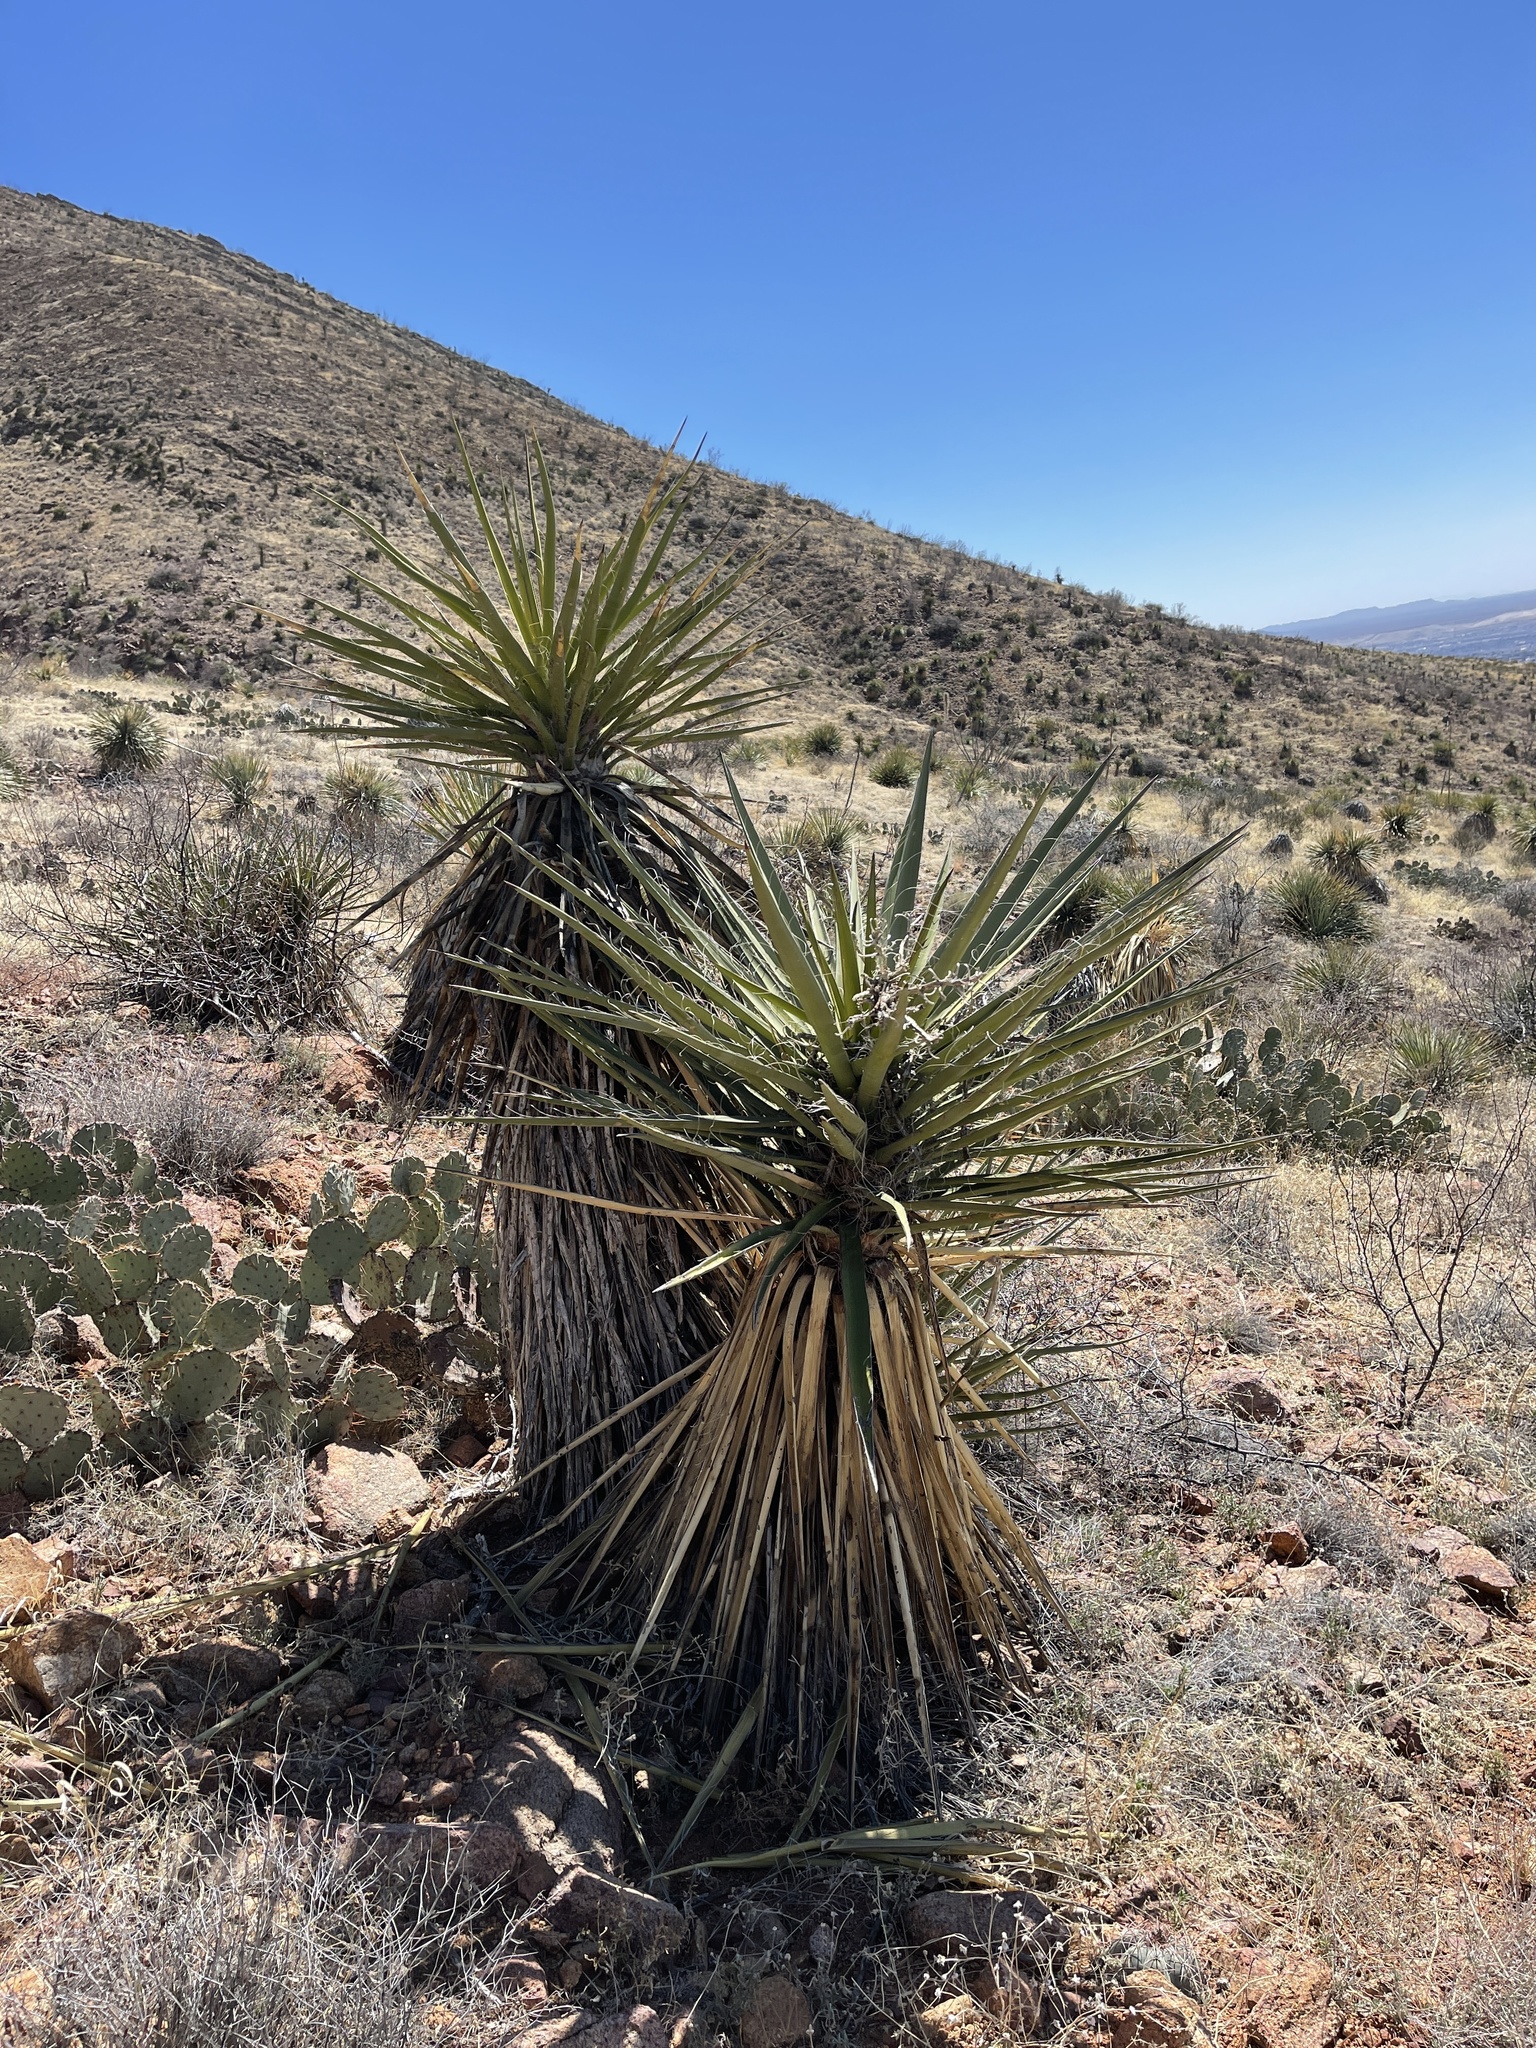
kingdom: Plantae
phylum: Tracheophyta
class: Liliopsida
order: Asparagales
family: Asparagaceae
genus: Yucca
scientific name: Yucca treculiana
